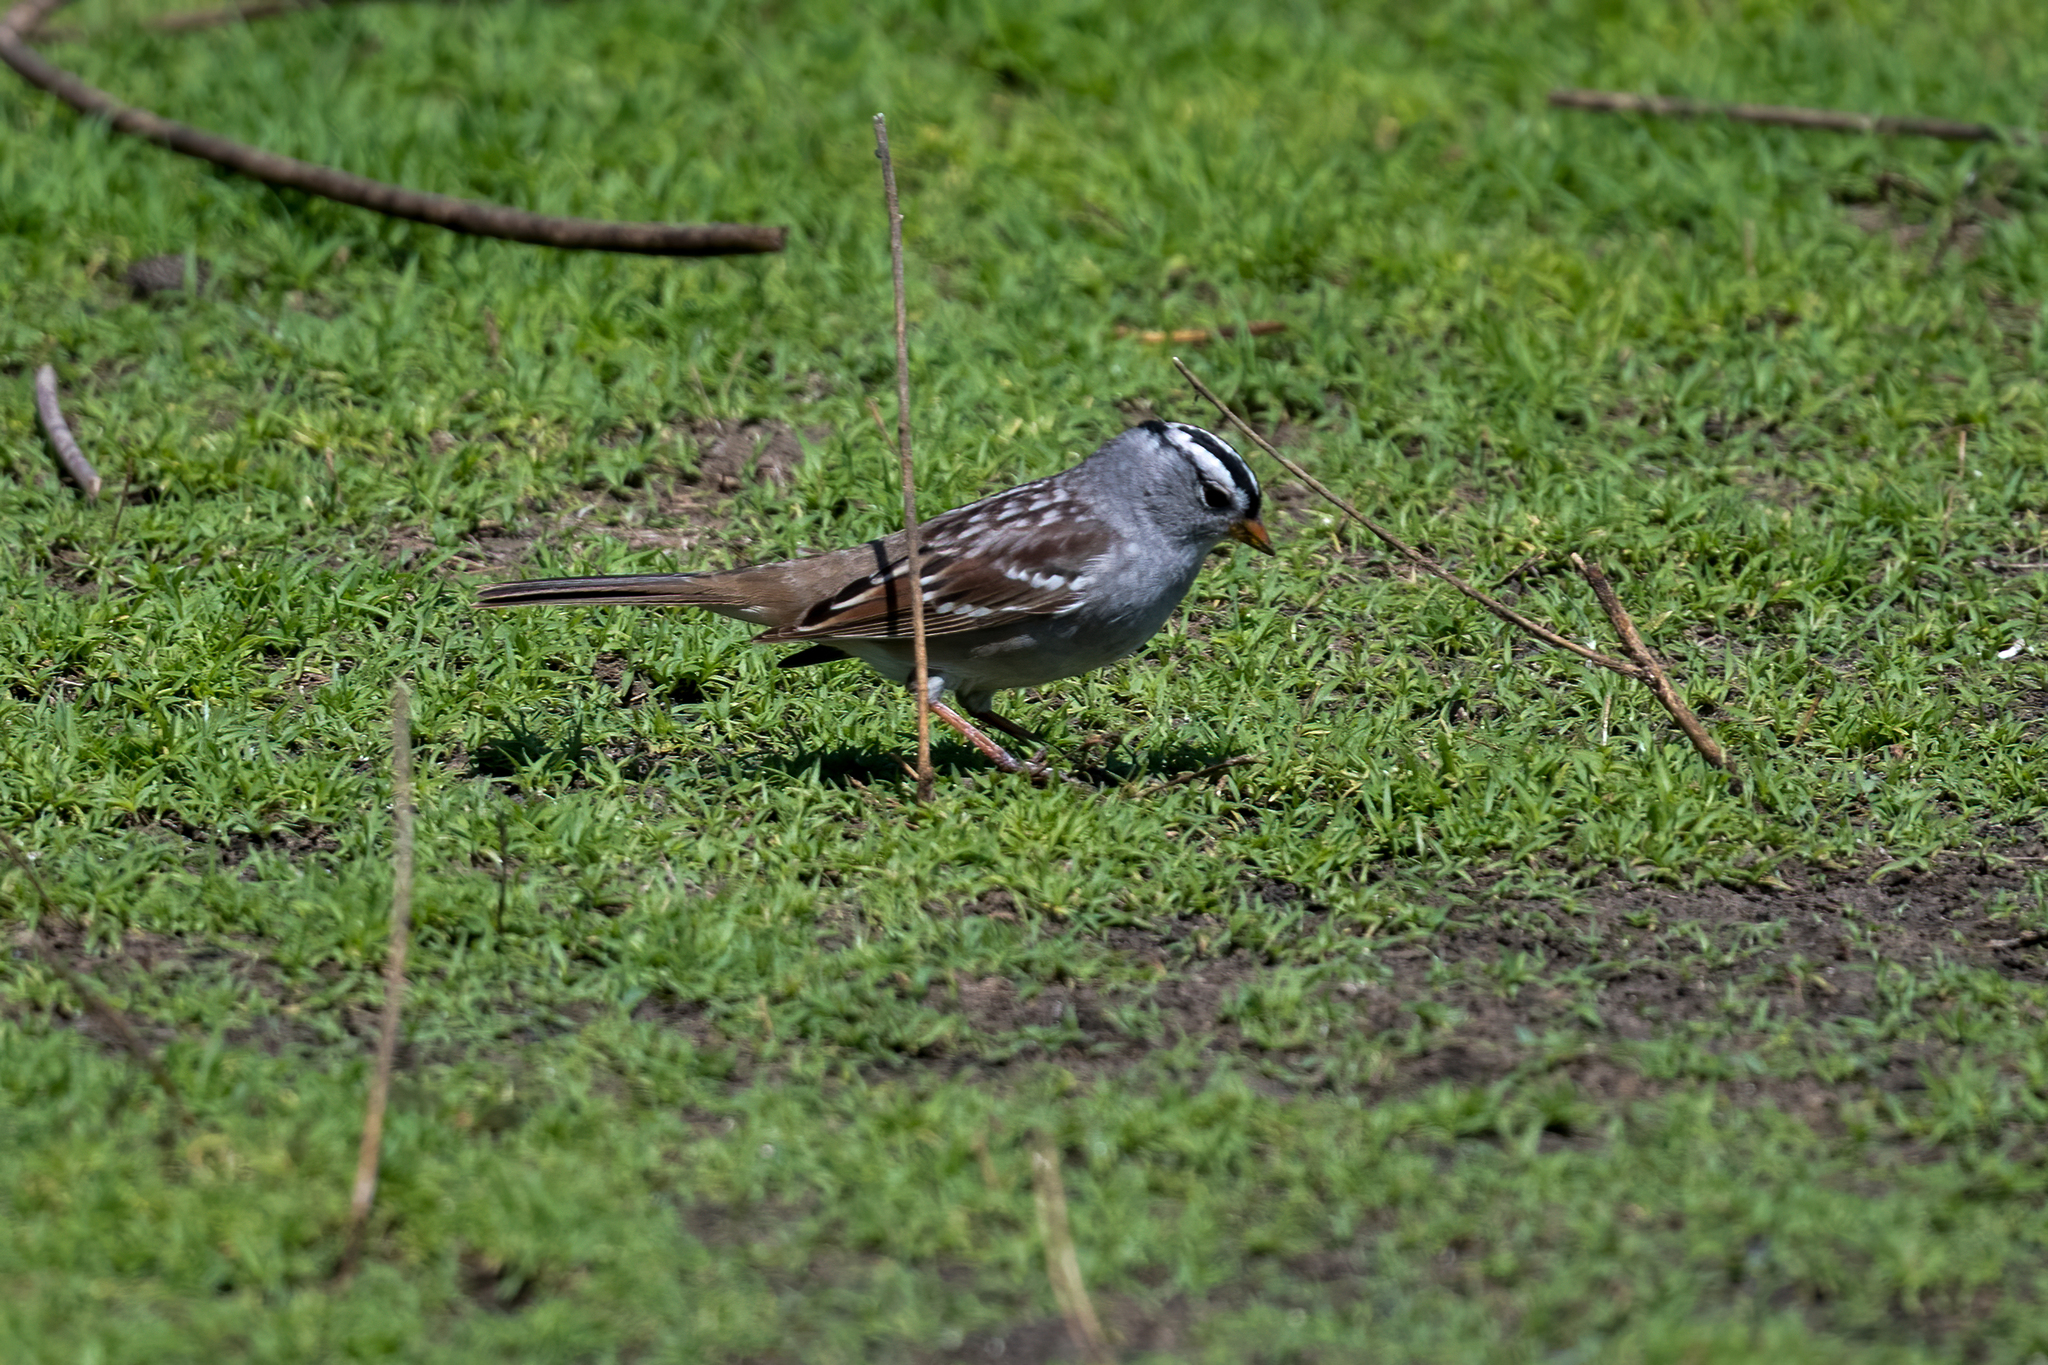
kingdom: Animalia
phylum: Chordata
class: Aves
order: Passeriformes
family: Passerellidae
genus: Zonotrichia
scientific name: Zonotrichia leucophrys
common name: White-crowned sparrow
